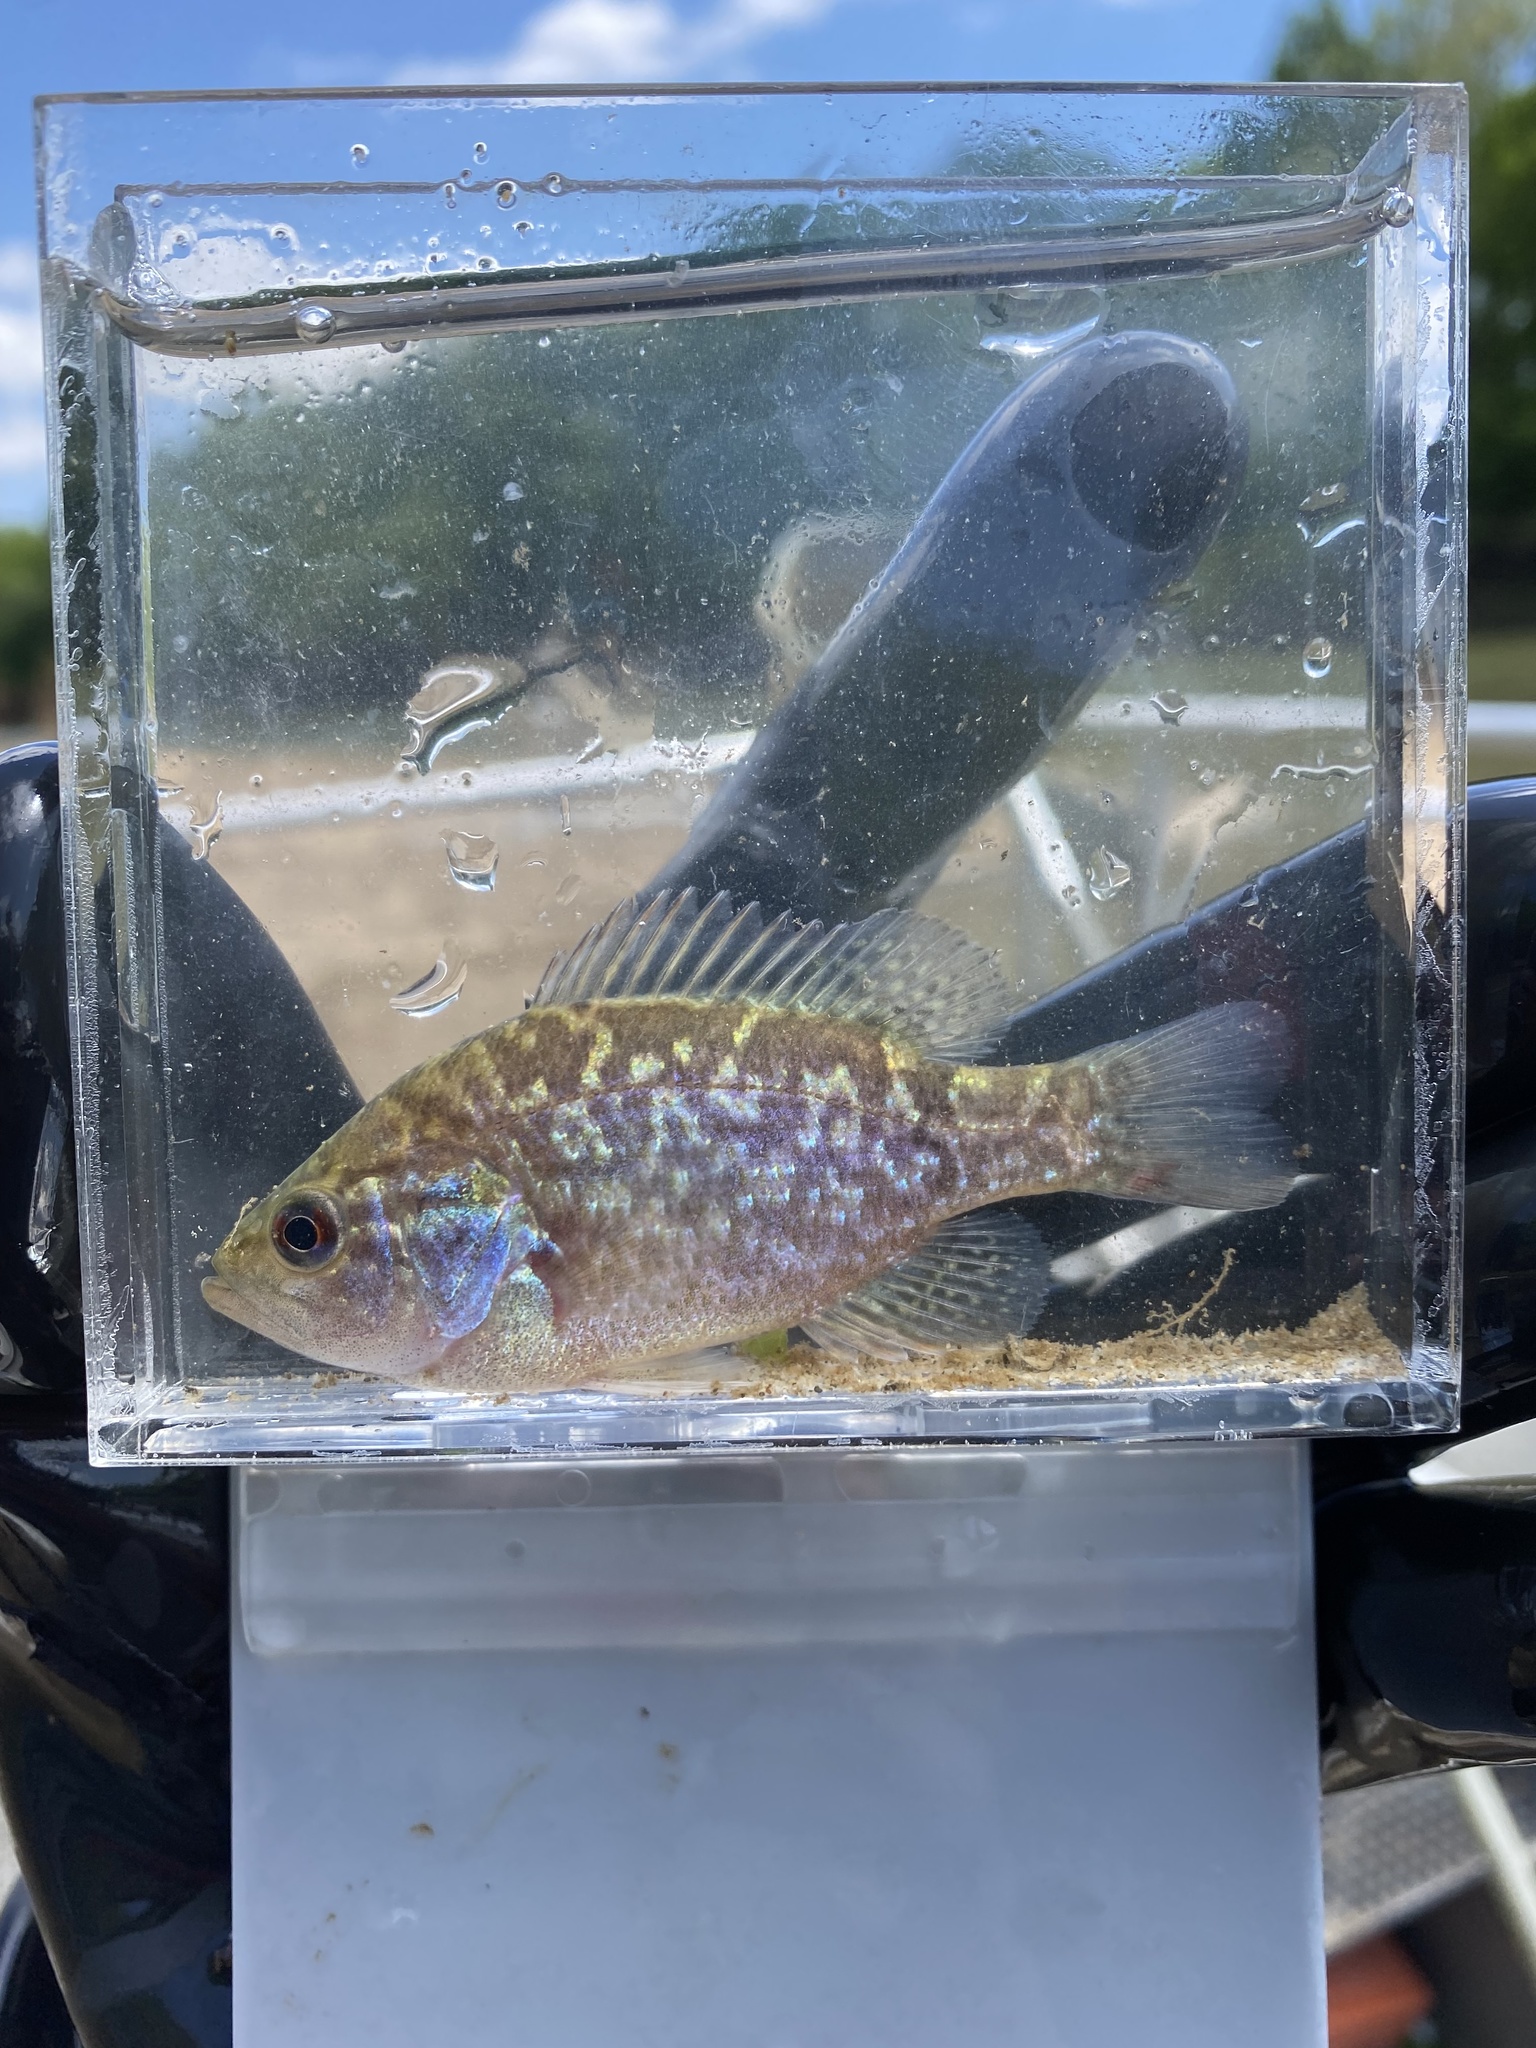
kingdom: Animalia
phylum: Chordata
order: Perciformes
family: Centrarchidae
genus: Lepomis
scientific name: Lepomis gulosus
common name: Warmouth
